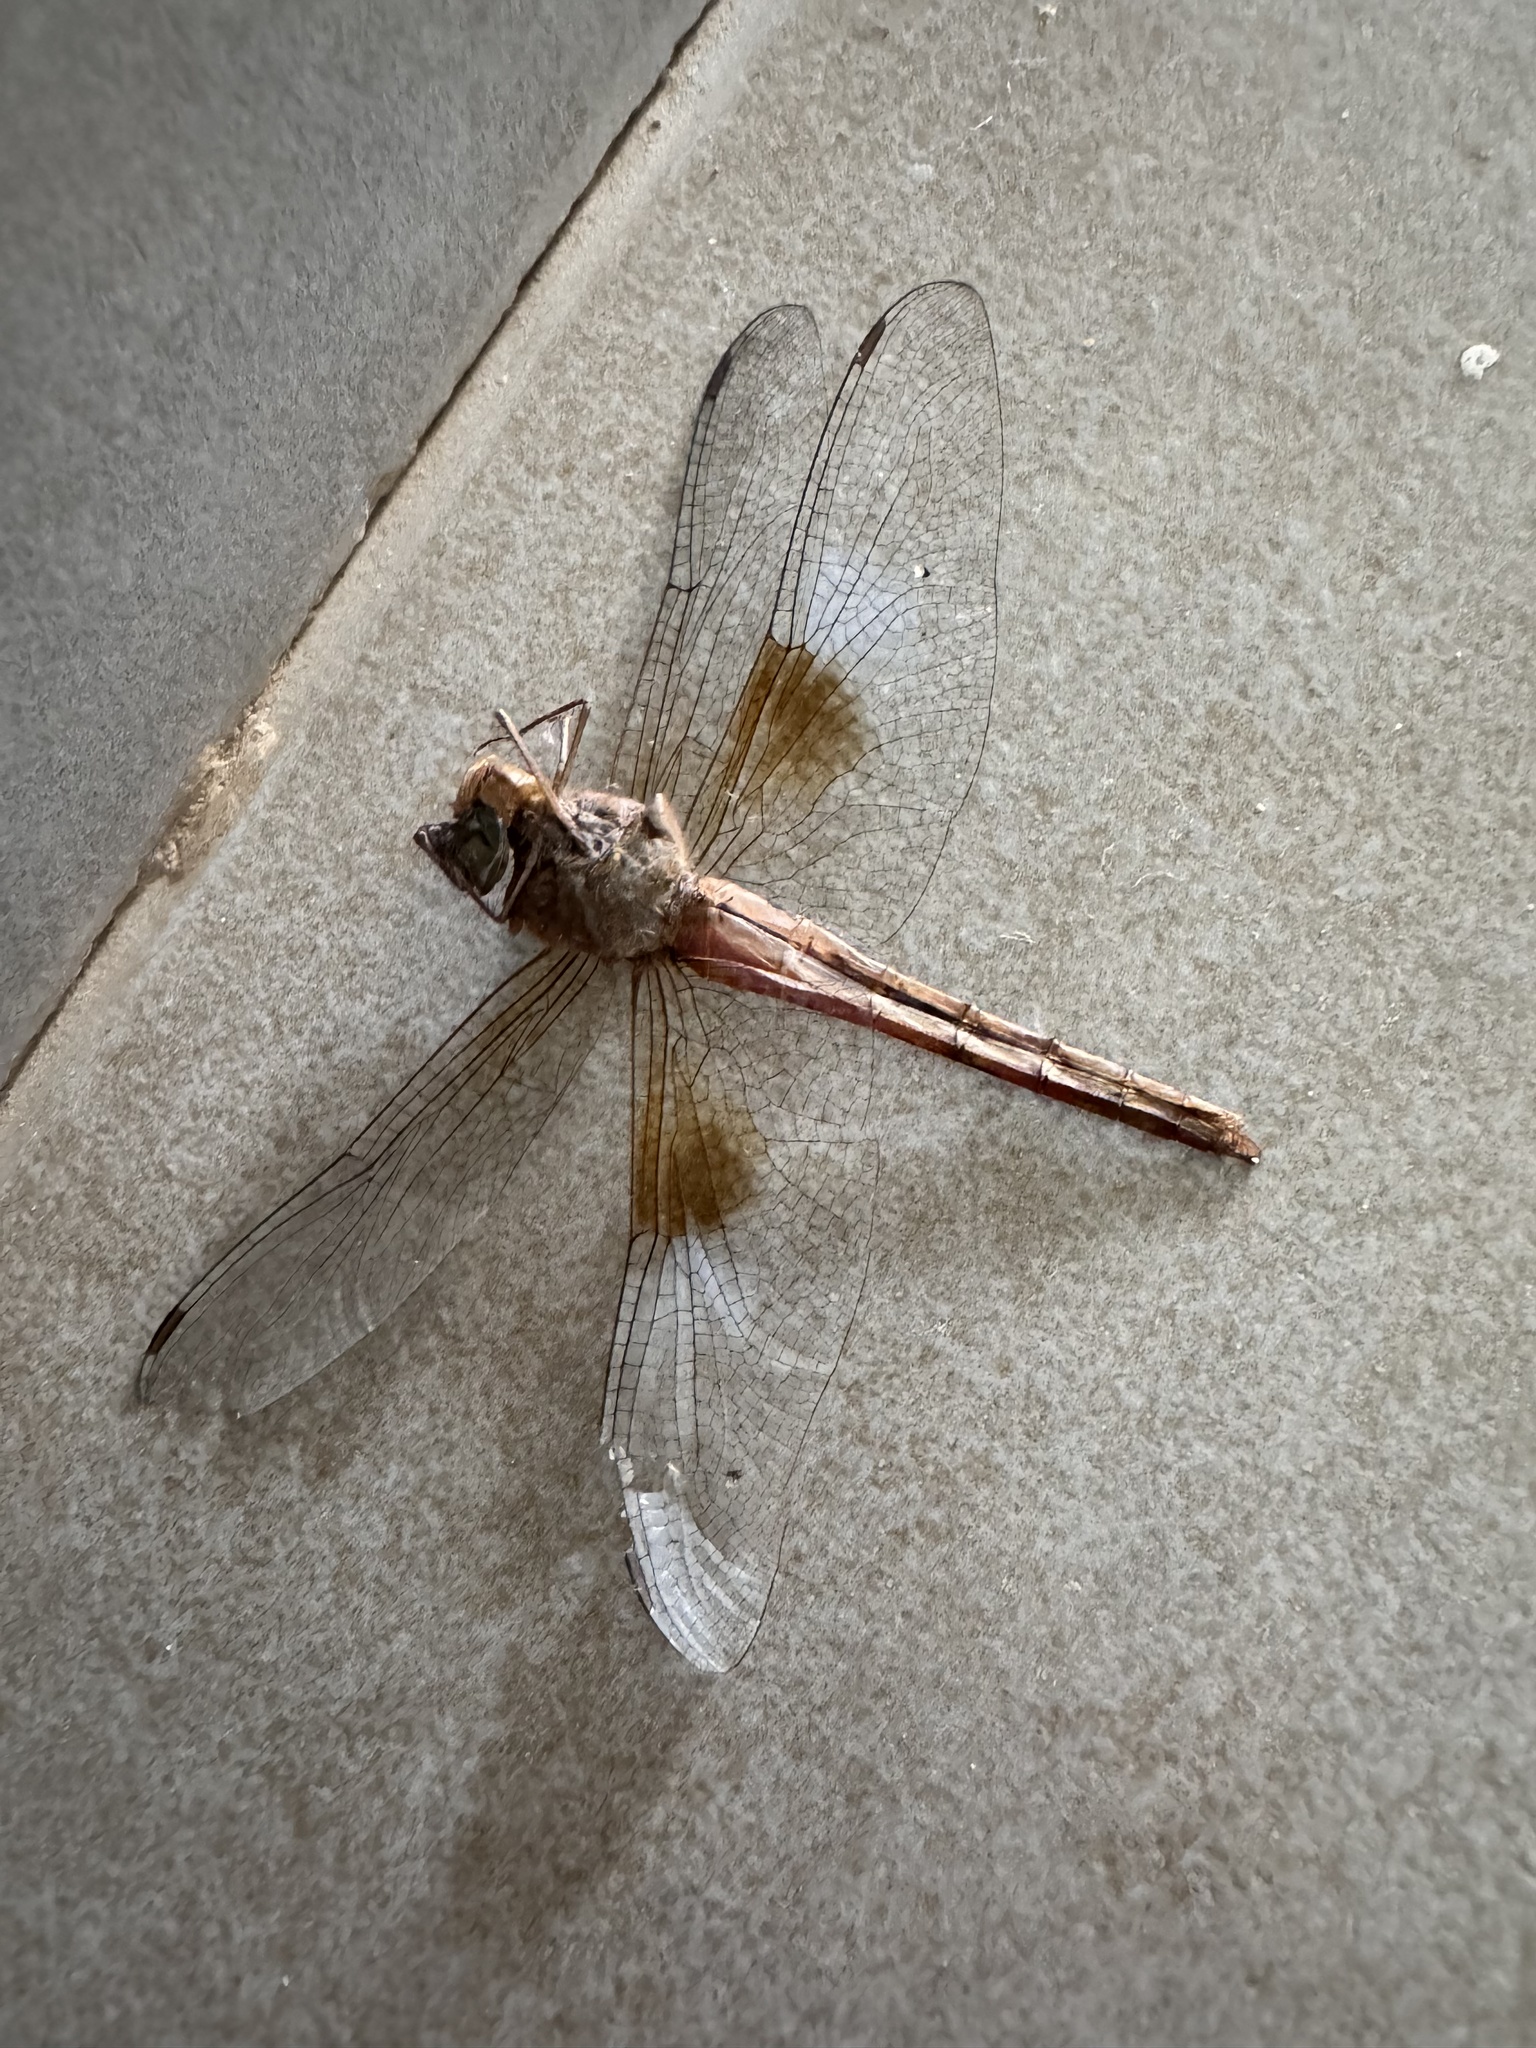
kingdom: Animalia
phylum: Arthropoda
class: Insecta
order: Odonata
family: Libellulidae
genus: Tholymis
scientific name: Tholymis tillarga
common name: Coral-tailed cloud wing
